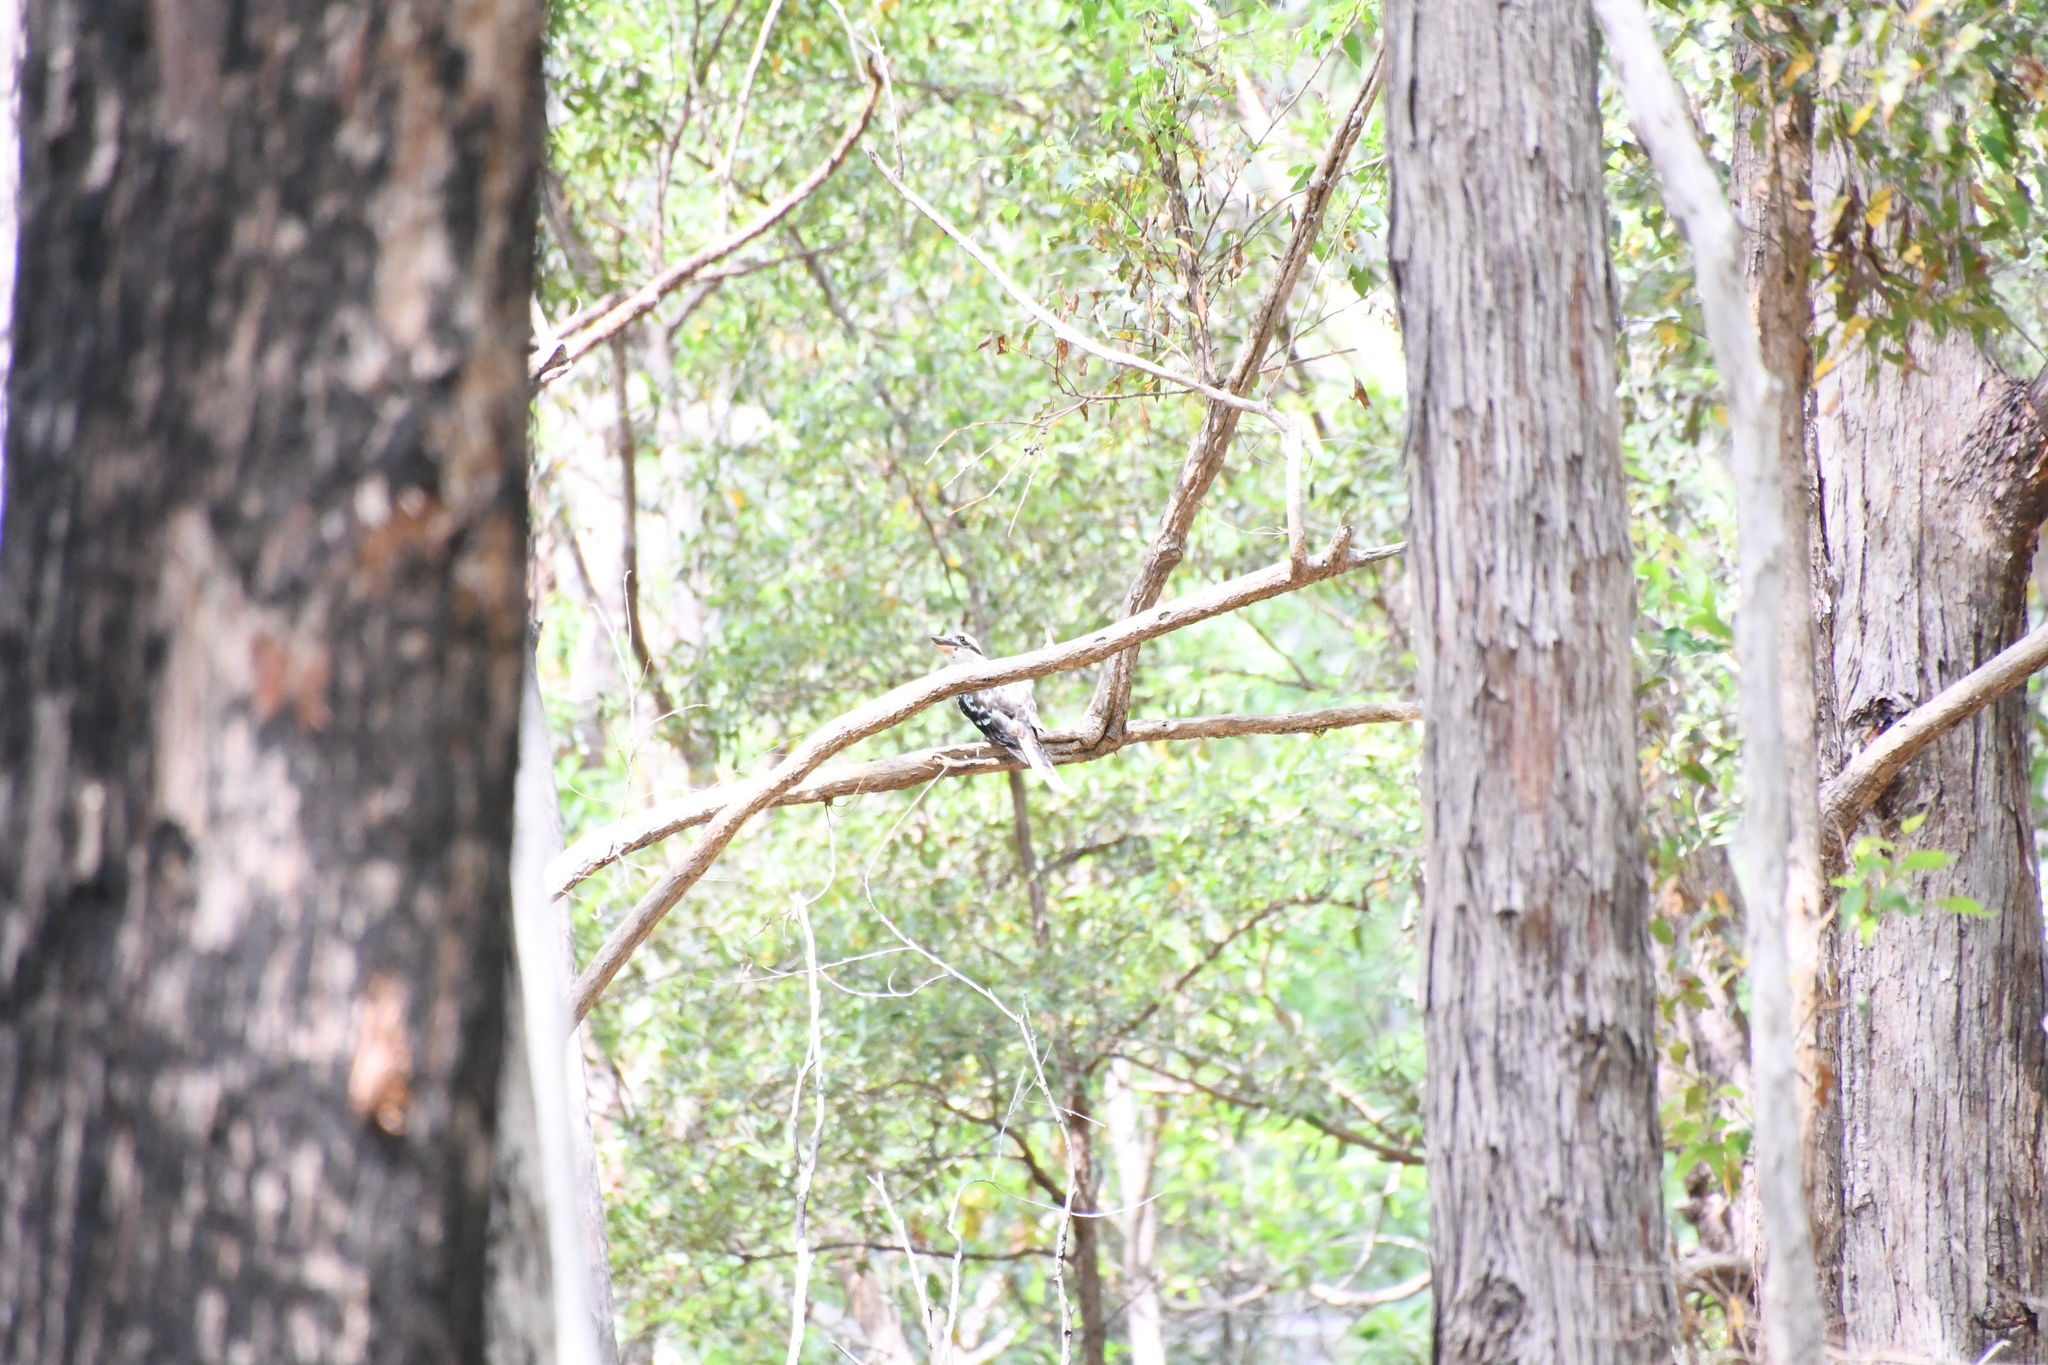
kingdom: Animalia
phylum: Chordata
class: Aves
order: Coraciiformes
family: Alcedinidae
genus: Dacelo
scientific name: Dacelo novaeguineae
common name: Laughing kookaburra
